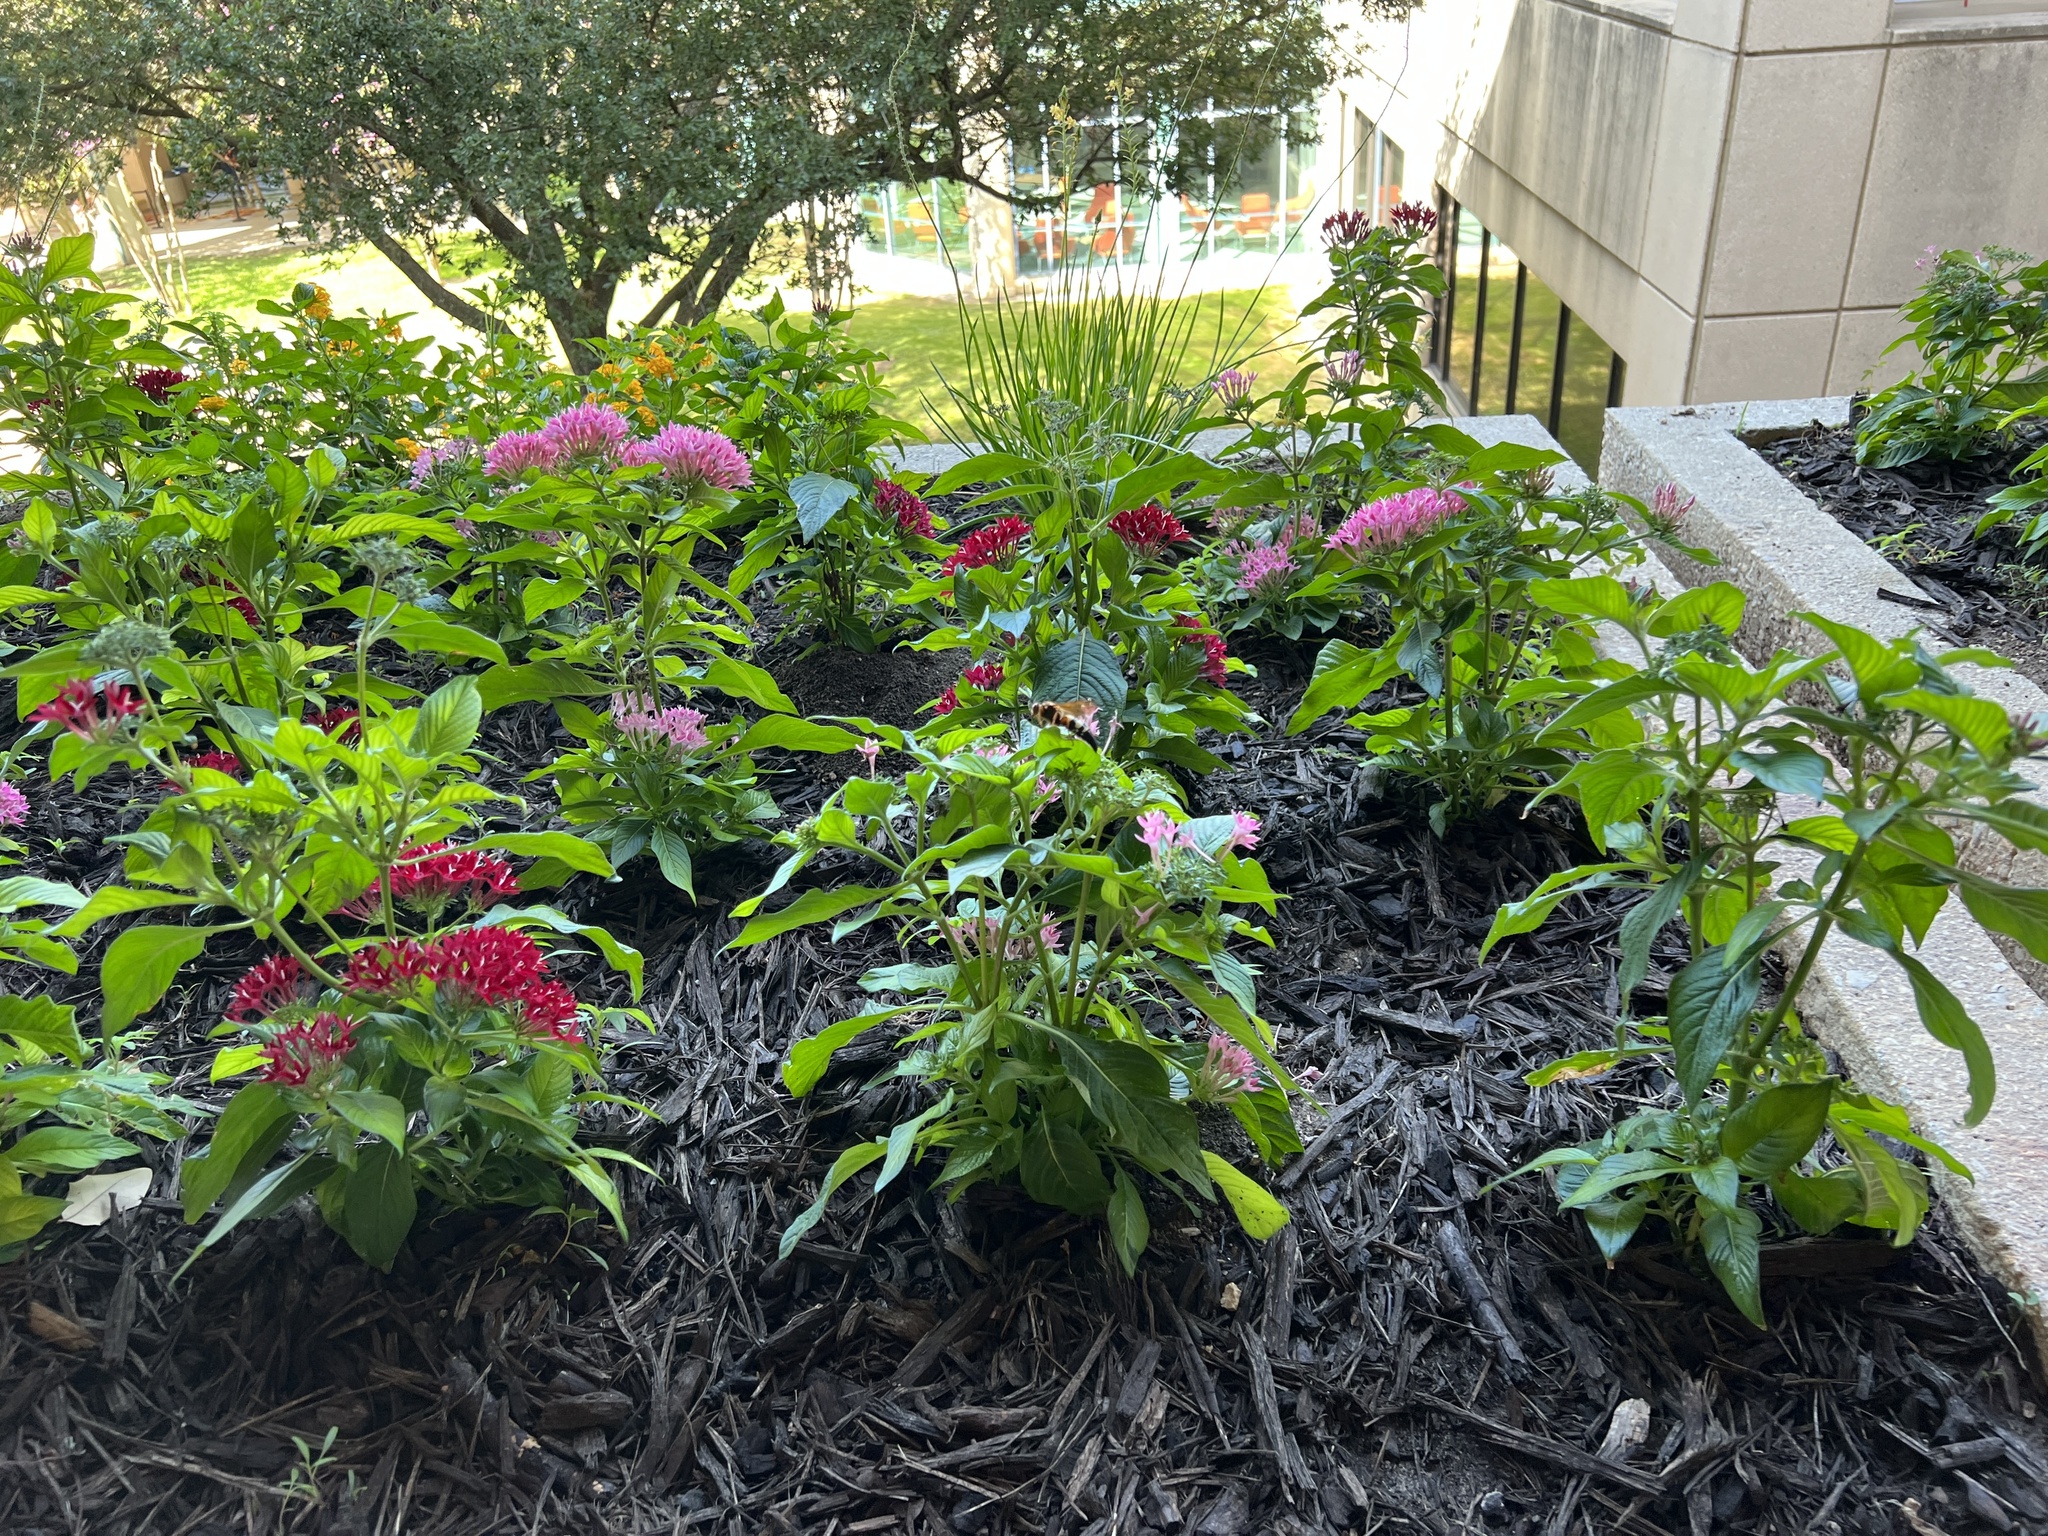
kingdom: Animalia
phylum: Arthropoda
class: Insecta
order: Hymenoptera
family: Crabronidae
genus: Sphecius
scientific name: Sphecius speciosus
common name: Cicada killer
